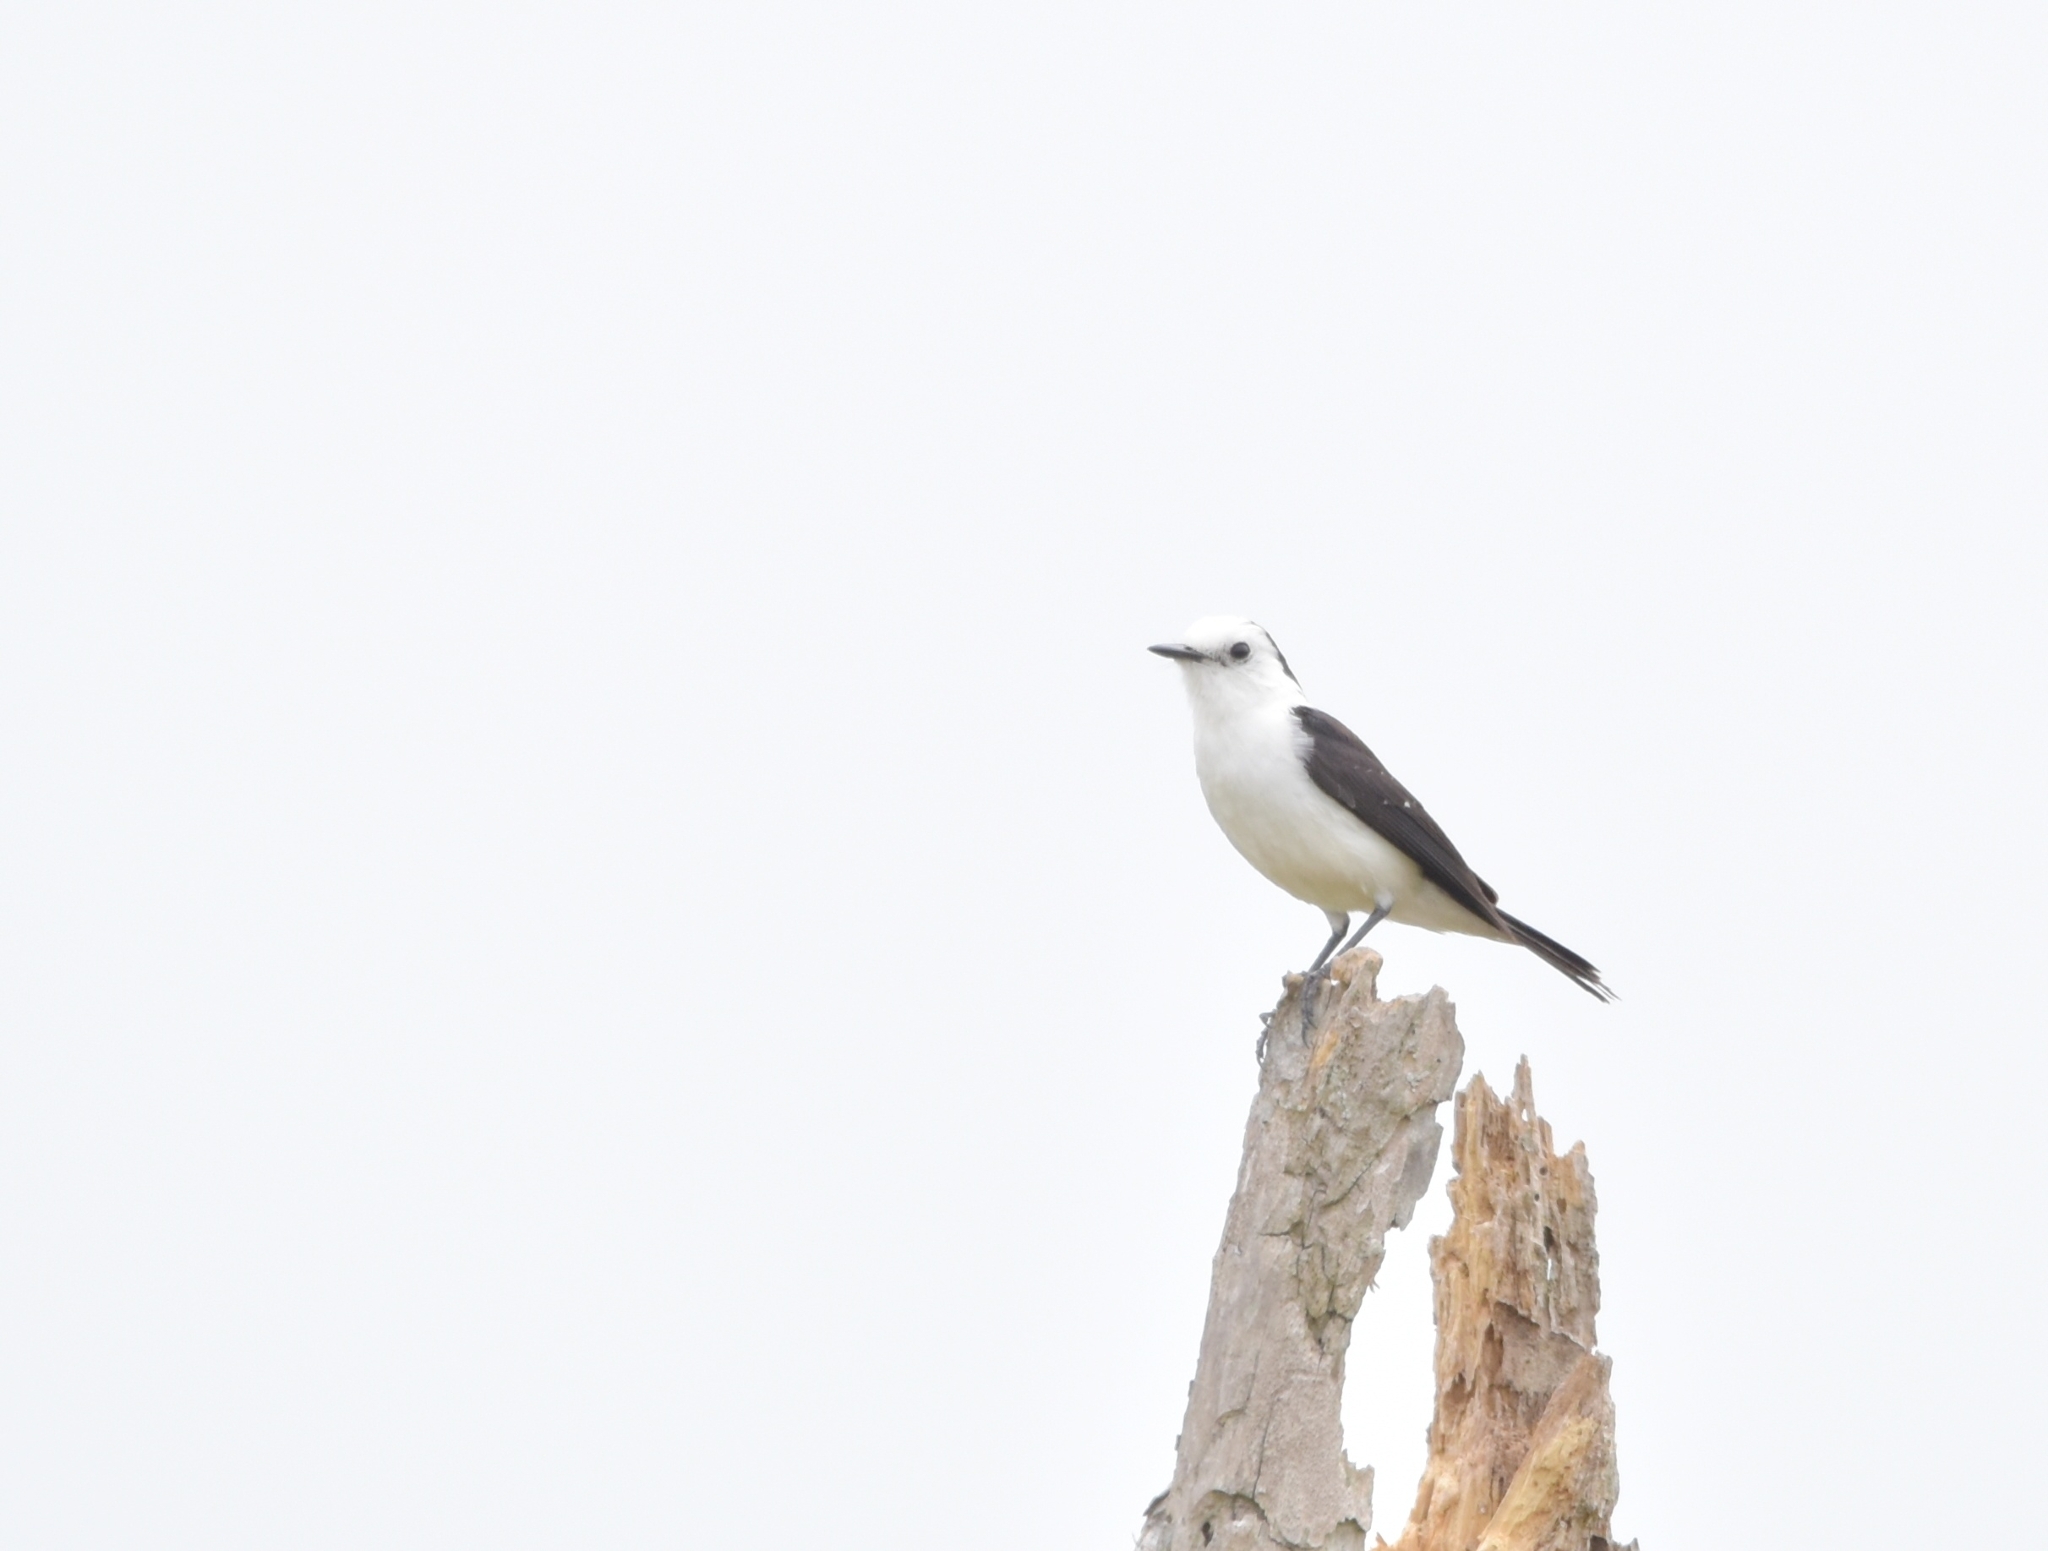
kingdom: Animalia
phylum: Chordata
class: Aves
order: Passeriformes
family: Tyrannidae
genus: Fluvicola
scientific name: Fluvicola pica
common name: Pied water-tyrant
